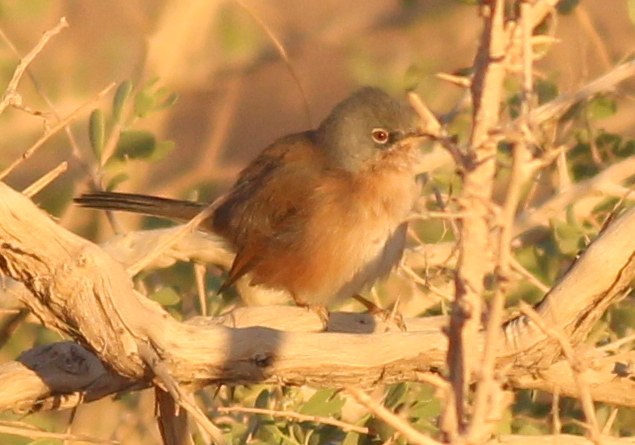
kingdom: Animalia
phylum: Chordata
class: Aves
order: Passeriformes
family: Sylviidae
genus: Sylvia
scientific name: Sylvia deserticola
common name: Tristram's warbler
